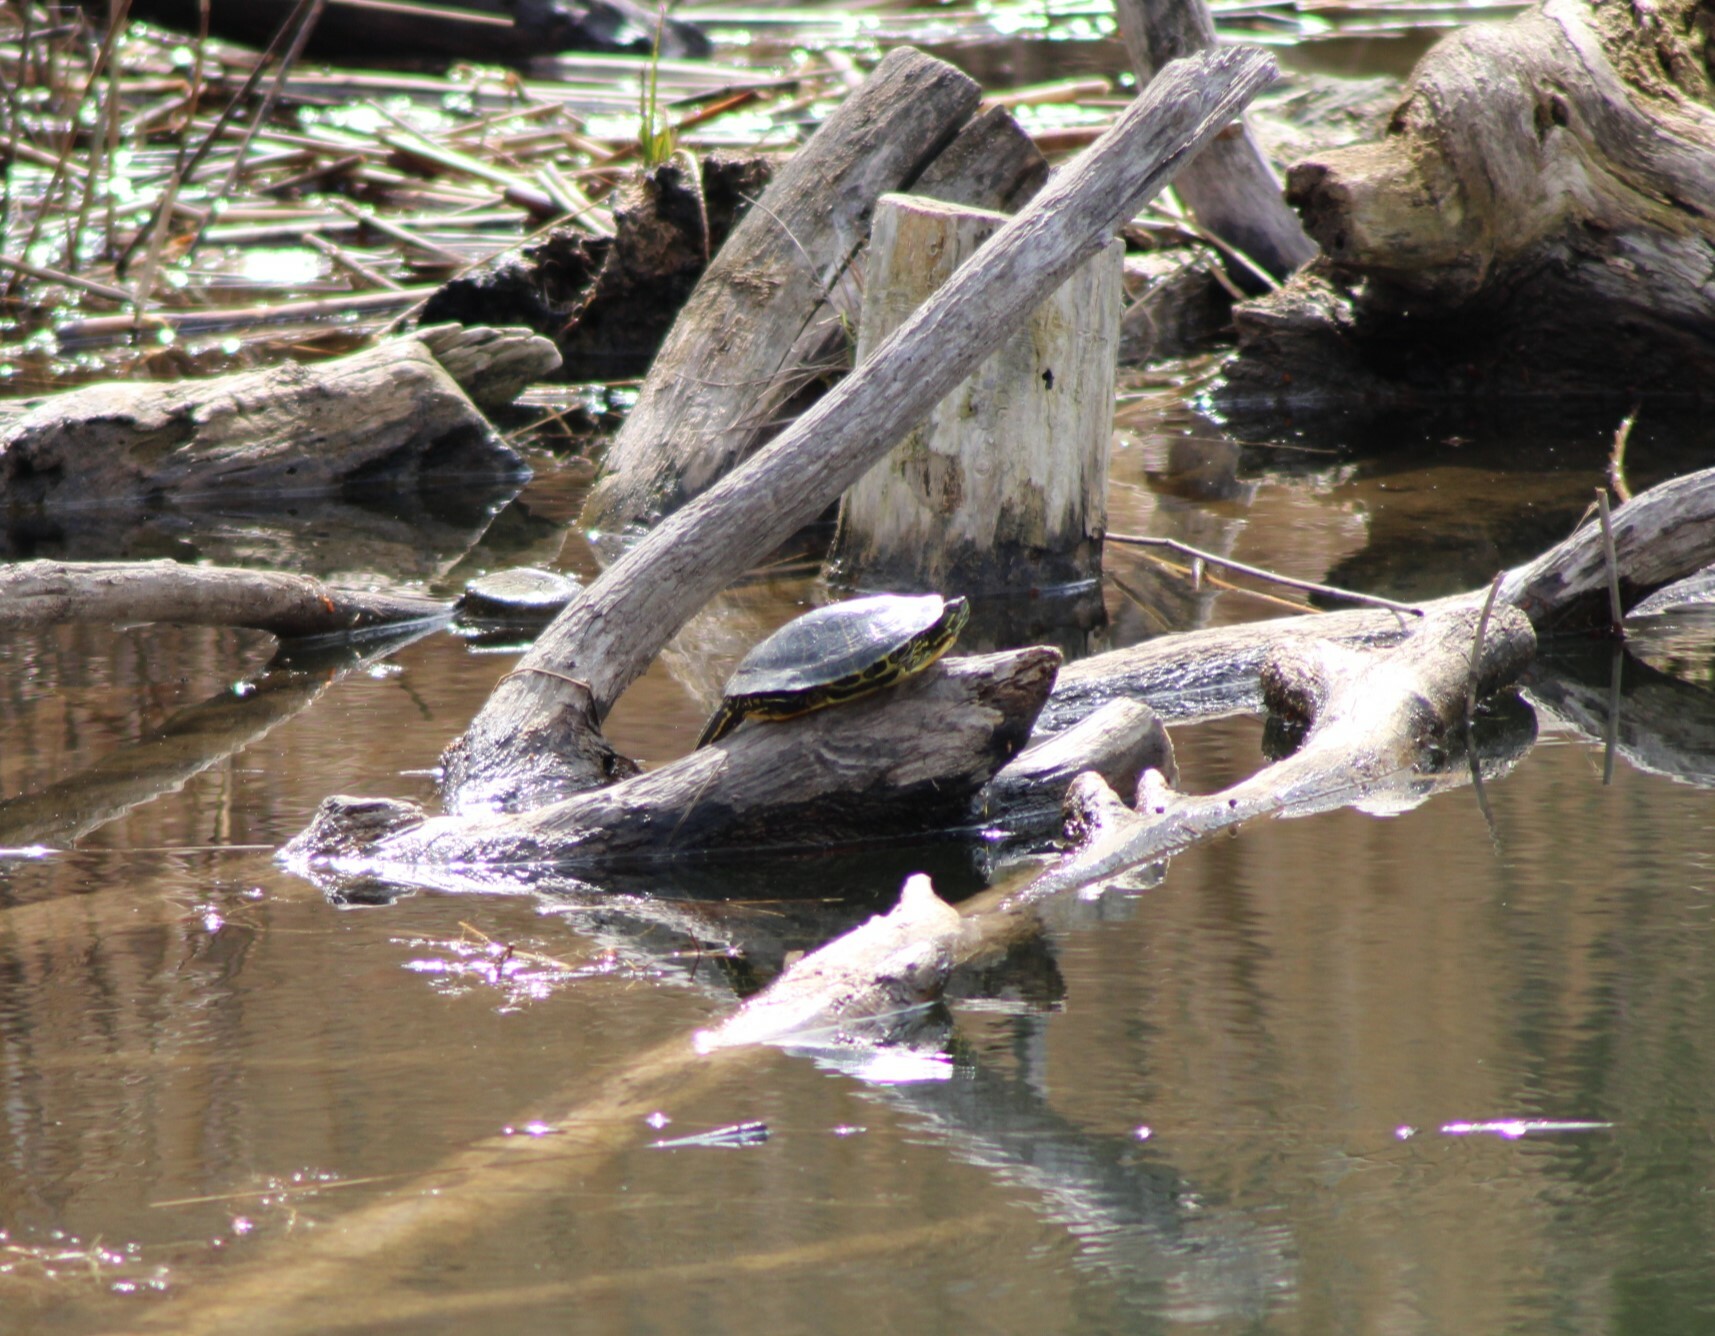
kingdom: Animalia
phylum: Chordata
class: Testudines
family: Emydidae
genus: Trachemys
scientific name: Trachemys scripta
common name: Slider
